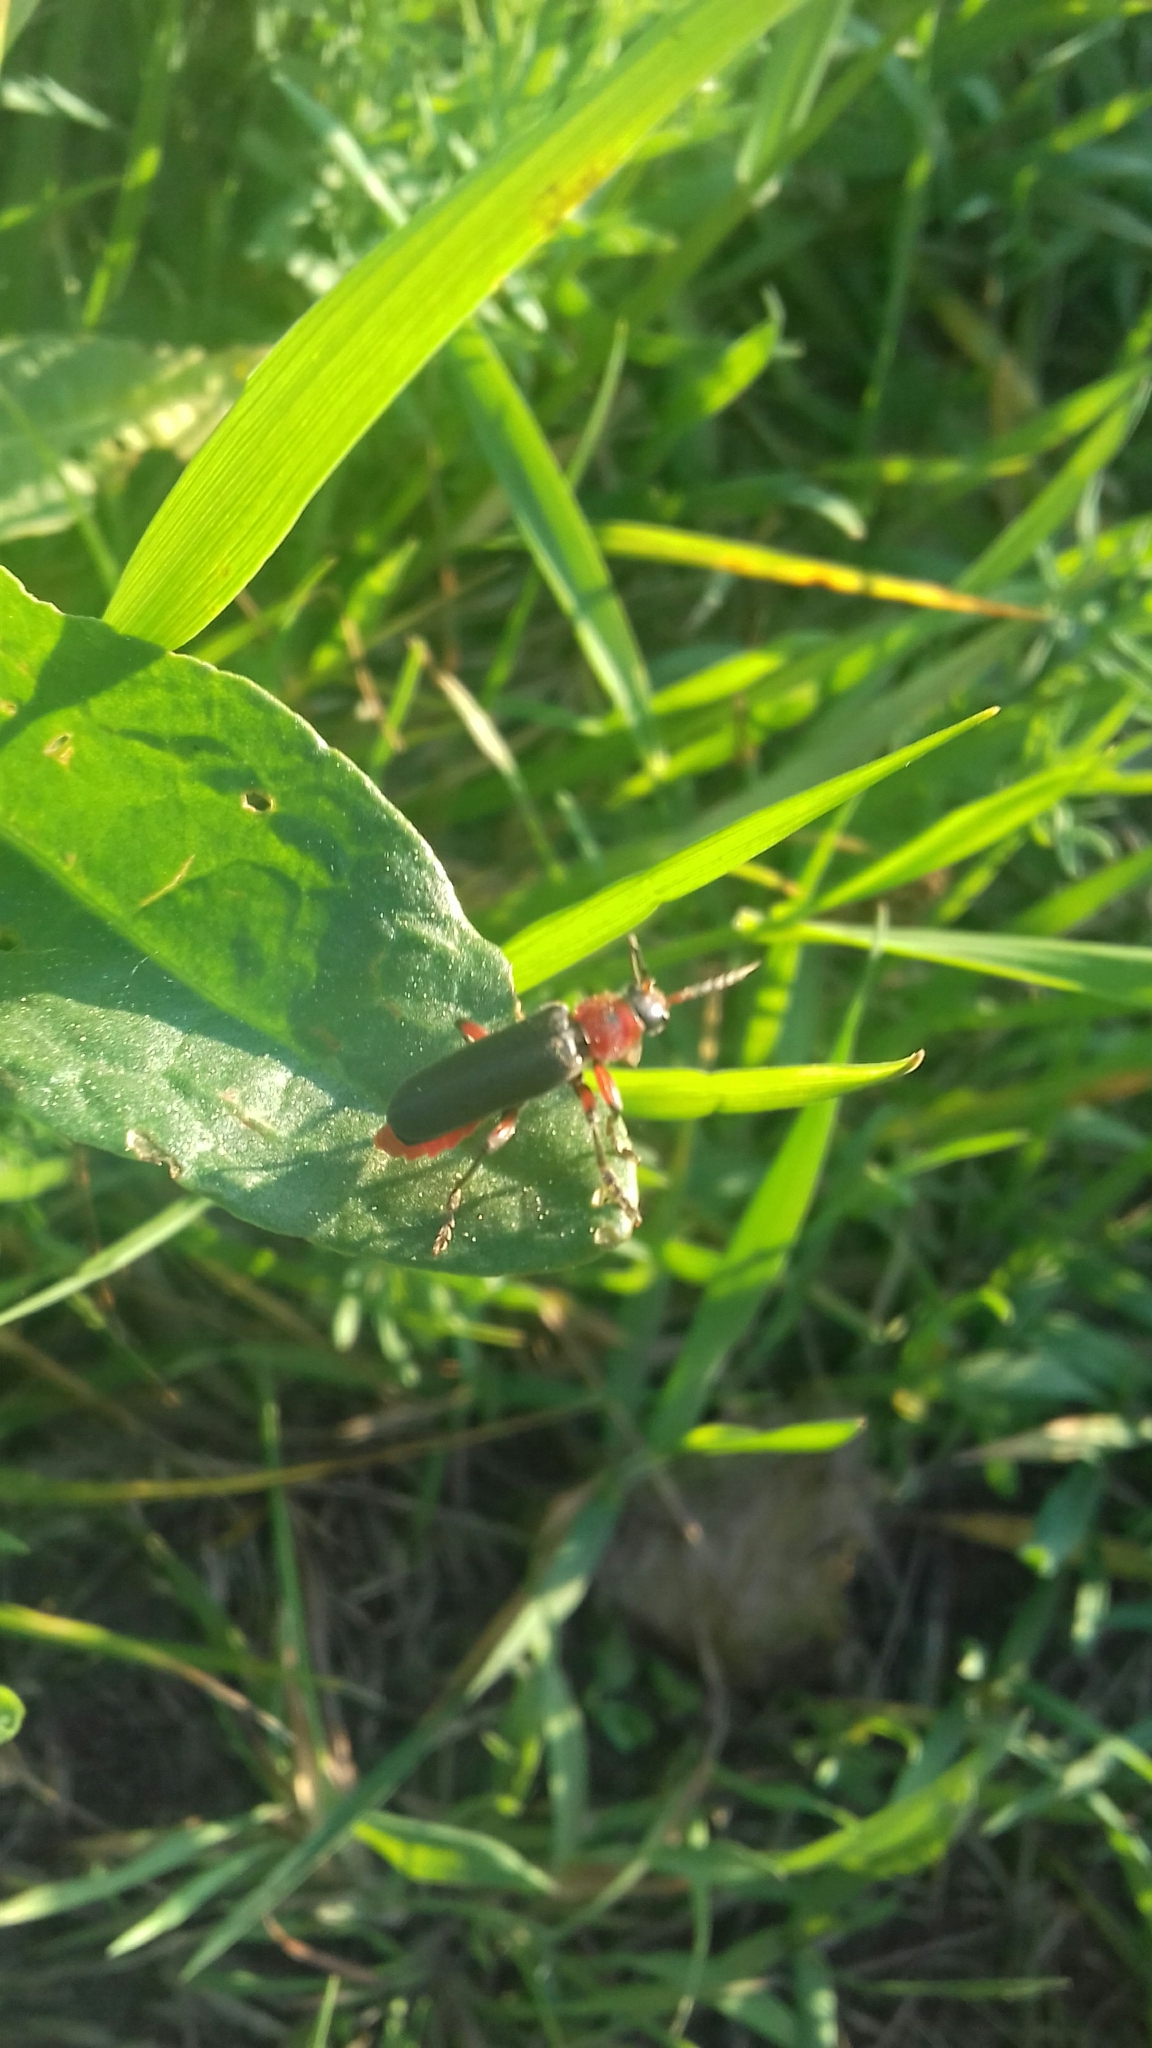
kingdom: Animalia
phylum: Arthropoda
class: Insecta
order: Coleoptera
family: Cantharidae
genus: Cantharis
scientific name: Cantharis rustica
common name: Soldier beetle
